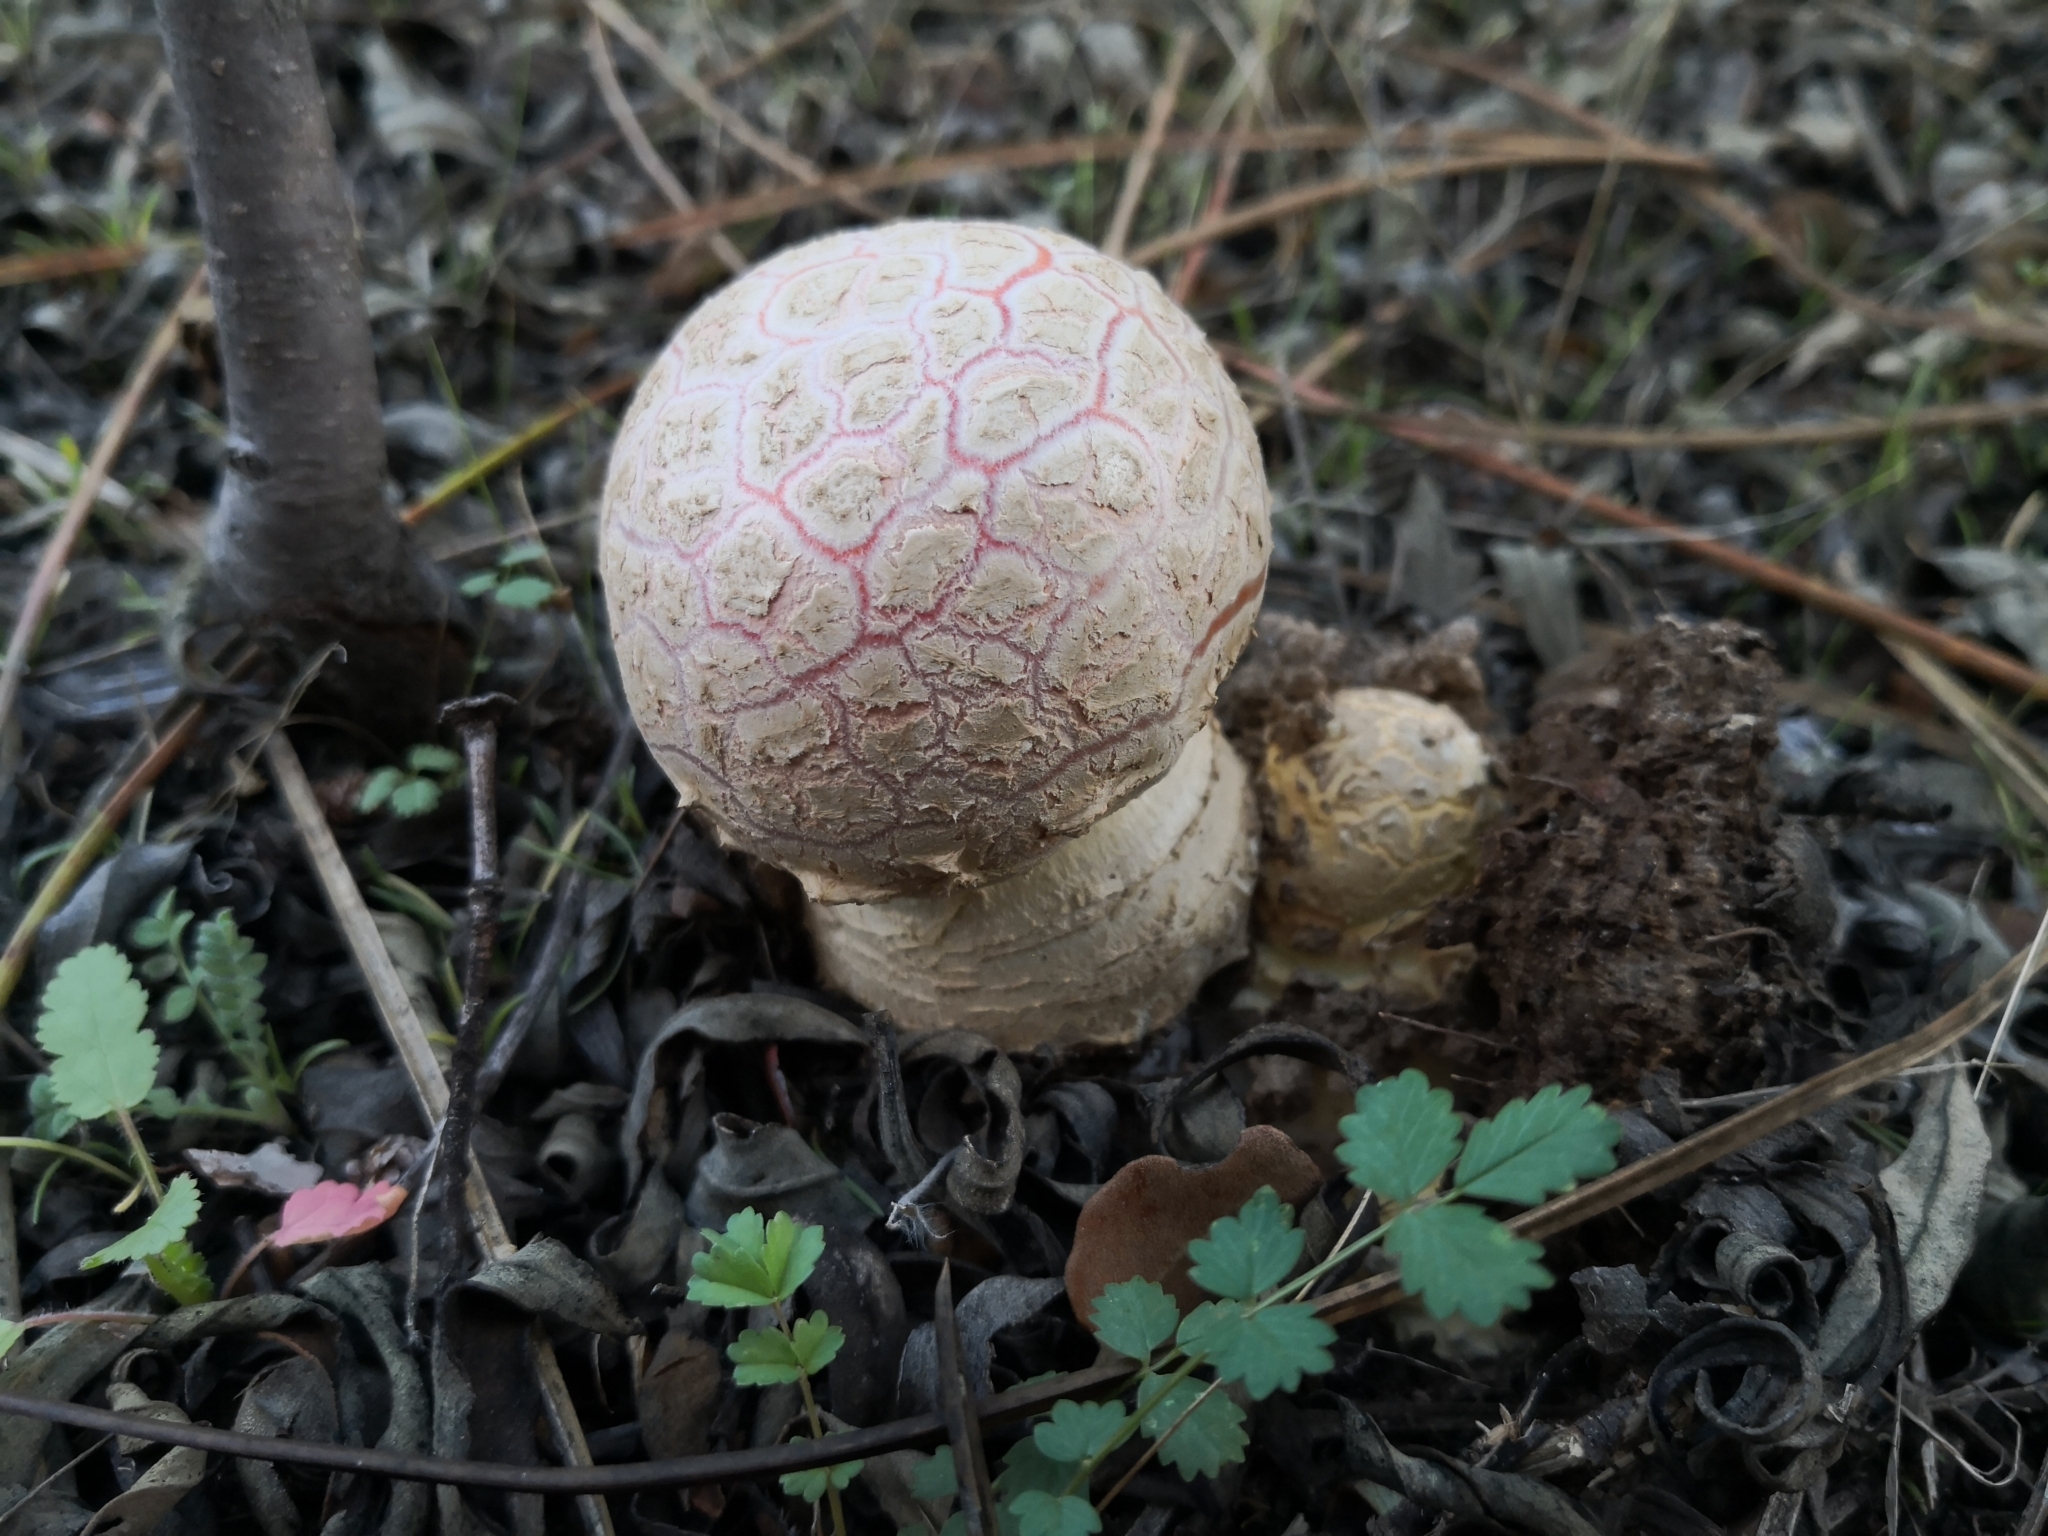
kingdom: Fungi
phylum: Basidiomycota
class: Agaricomycetes
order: Agaricales
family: Amanitaceae
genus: Amanita
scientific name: Amanita muscaria
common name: Fly agaric
